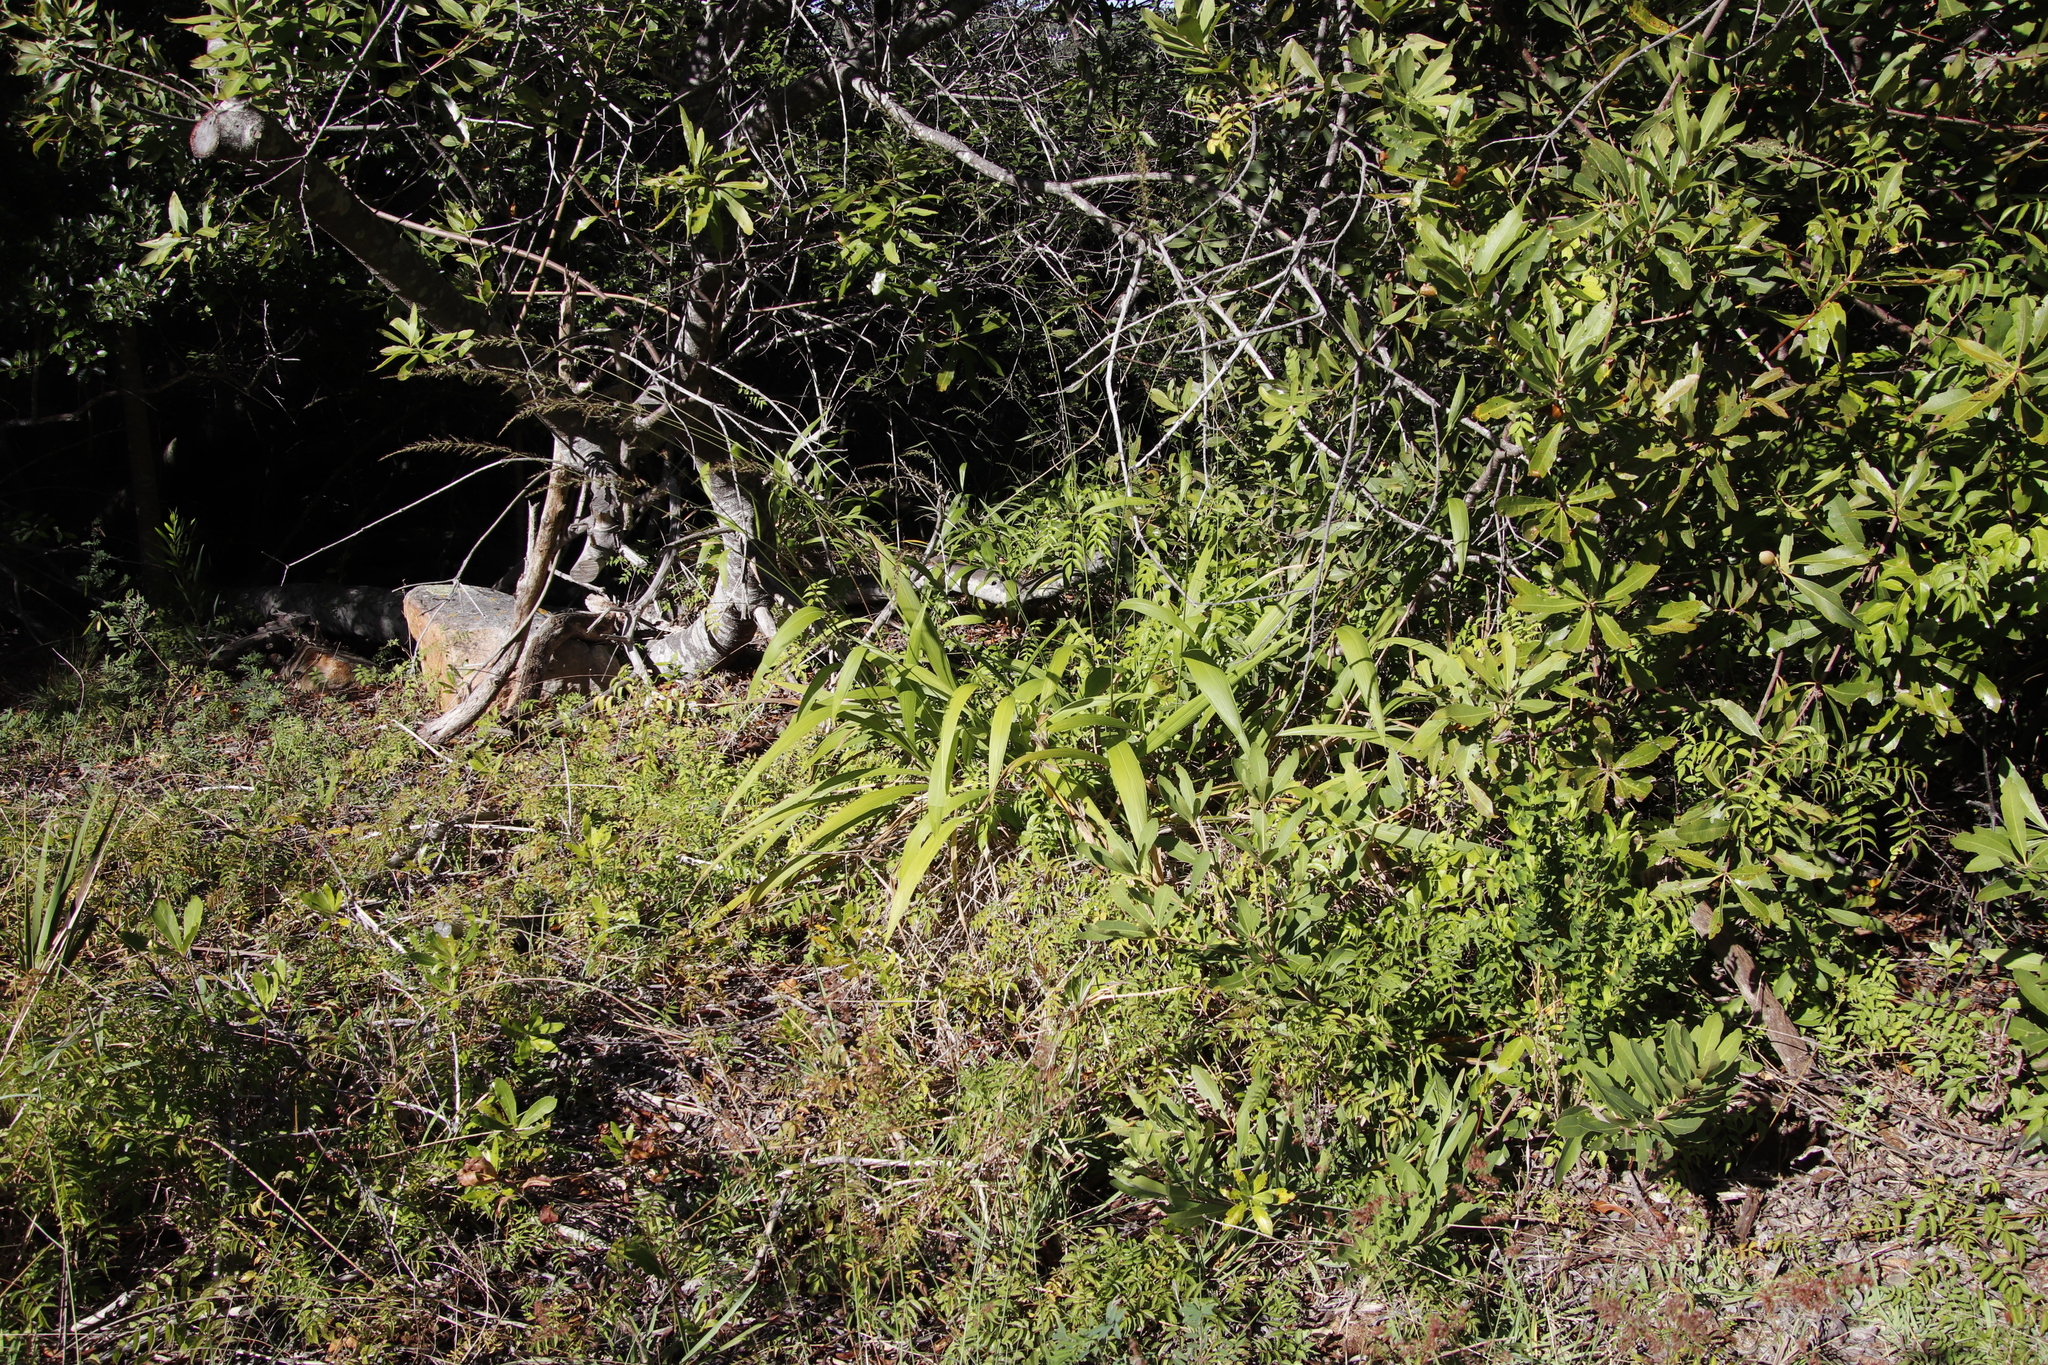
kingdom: Plantae
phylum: Tracheophyta
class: Liliopsida
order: Poales
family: Poaceae
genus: Setaria
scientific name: Setaria megaphylla
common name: Bigleaf bristlegrass
